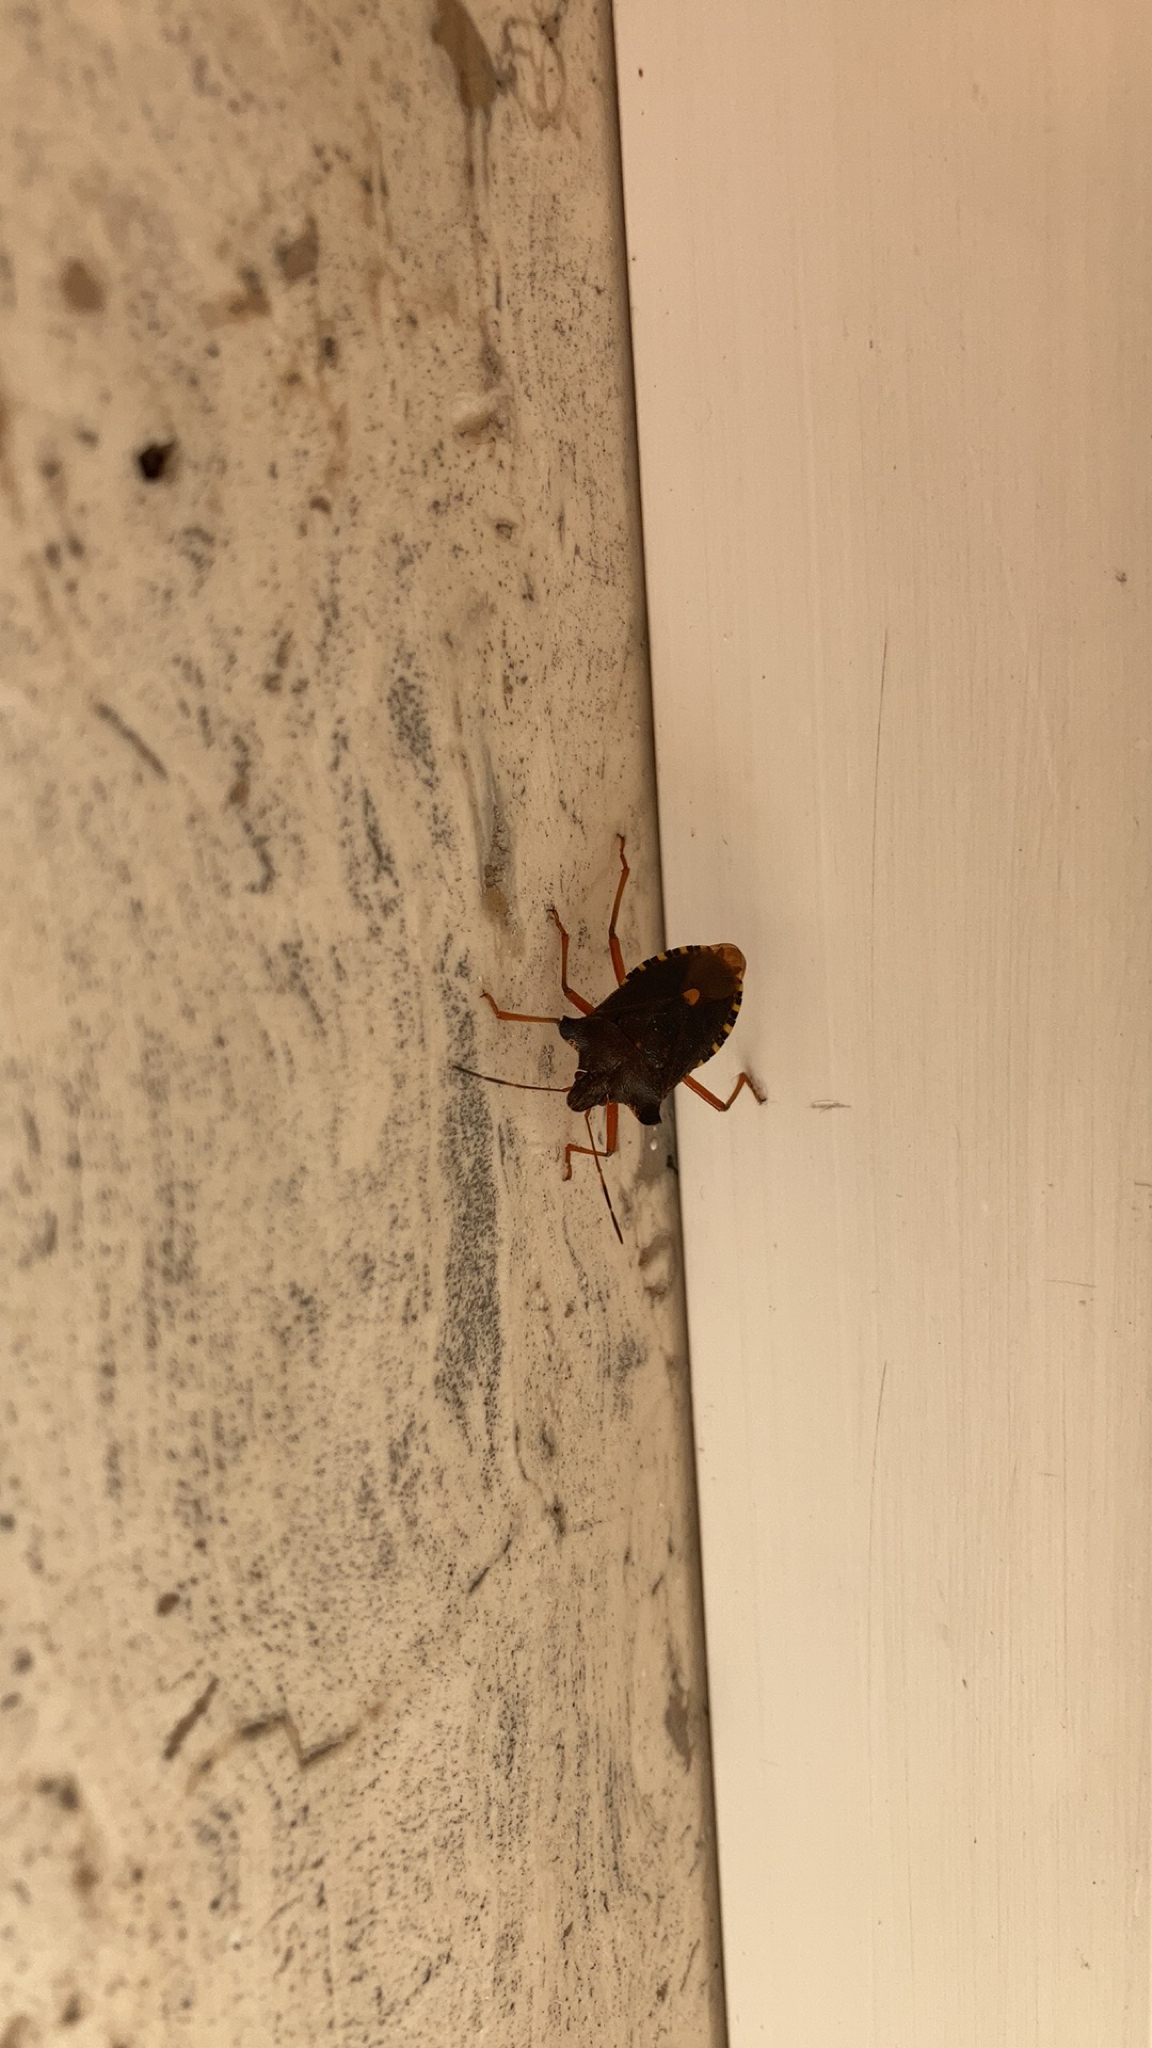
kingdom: Animalia
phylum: Arthropoda
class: Insecta
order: Hemiptera
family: Pentatomidae
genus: Pentatoma
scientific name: Pentatoma rufipes
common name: Forest bug
